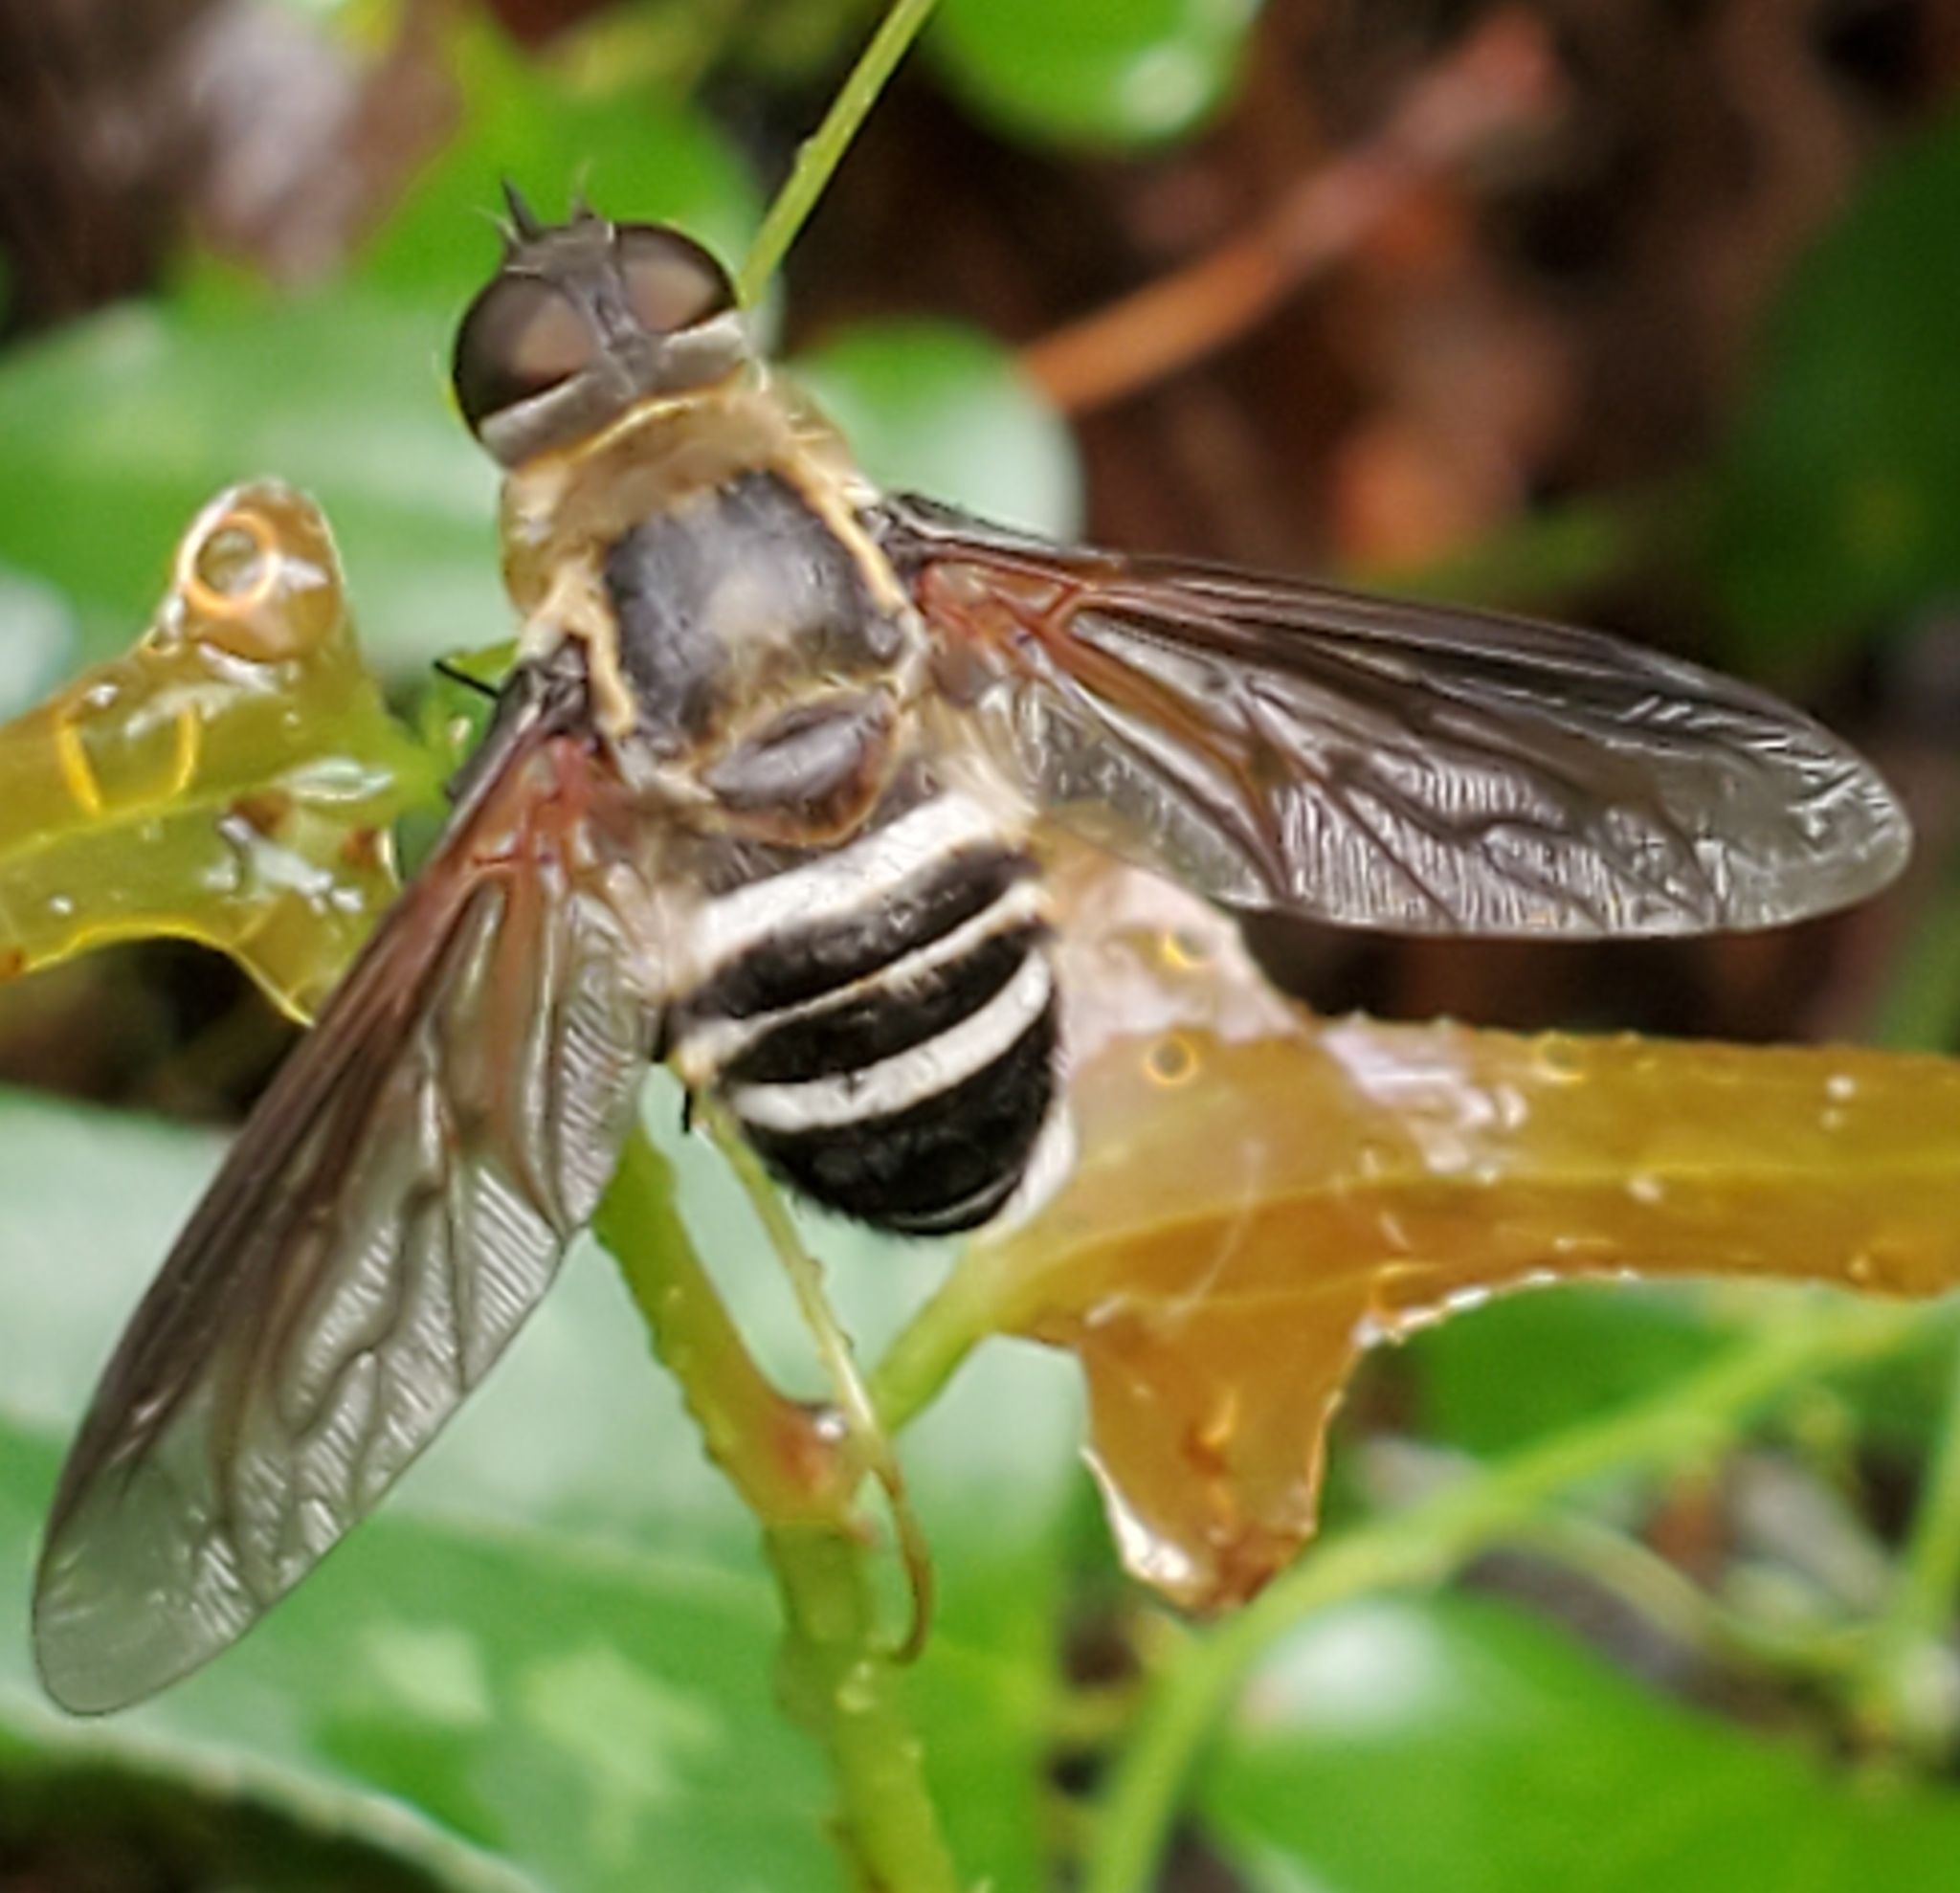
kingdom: Animalia
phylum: Arthropoda
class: Insecta
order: Diptera
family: Bombyliidae
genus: Exoprosopa
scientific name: Exoprosopa fasciata
